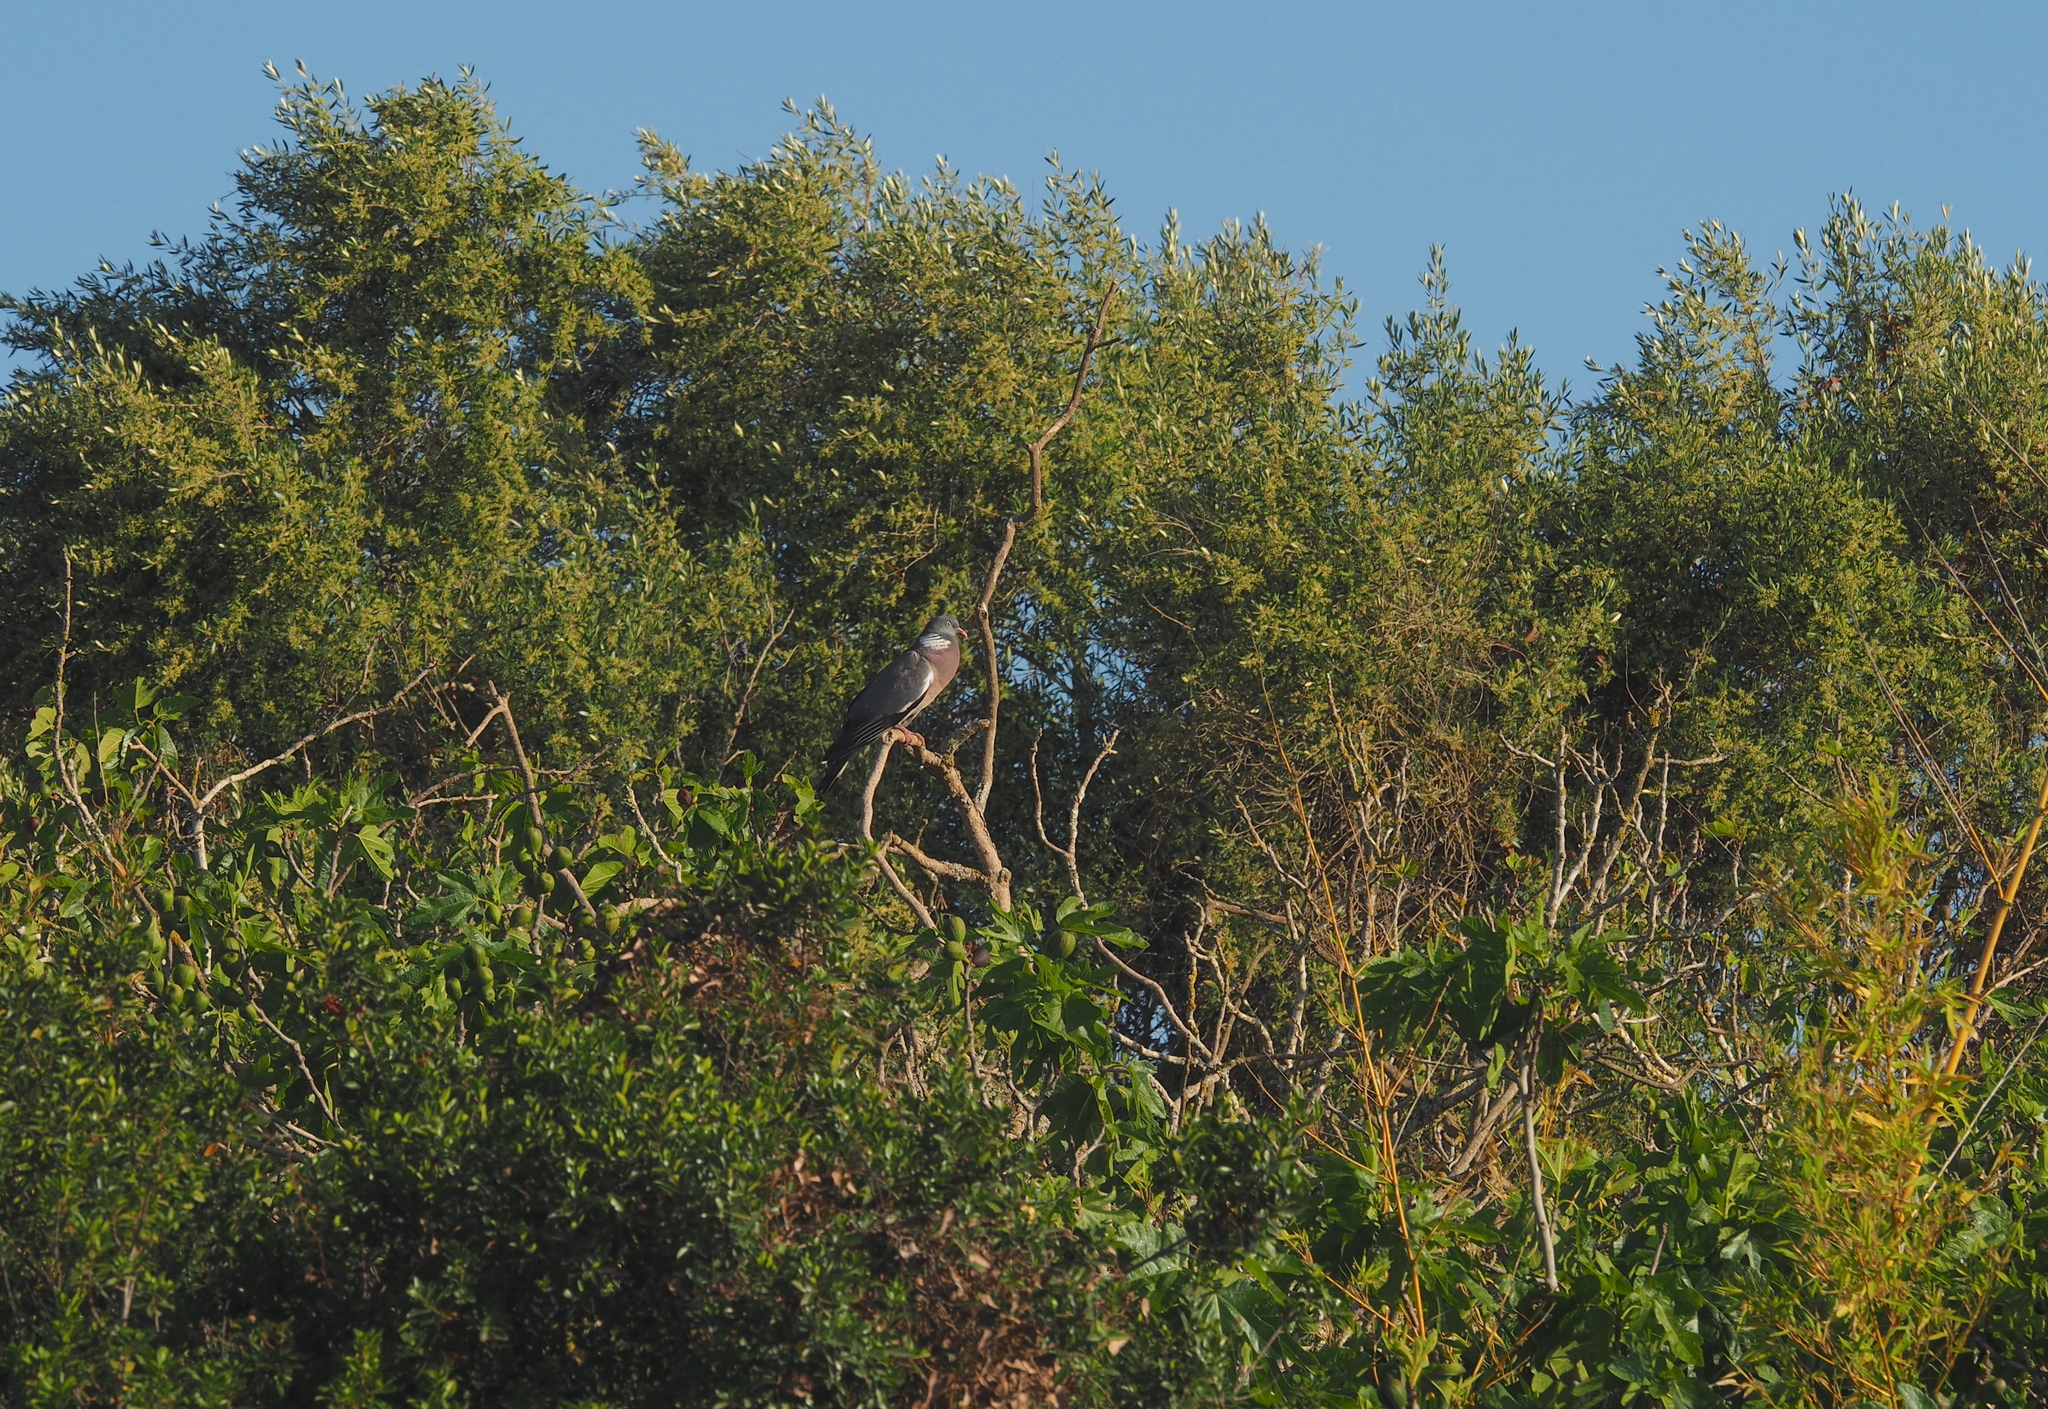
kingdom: Animalia
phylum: Chordata
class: Aves
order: Columbiformes
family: Columbidae
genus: Columba
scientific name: Columba palumbus
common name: Common wood pigeon
